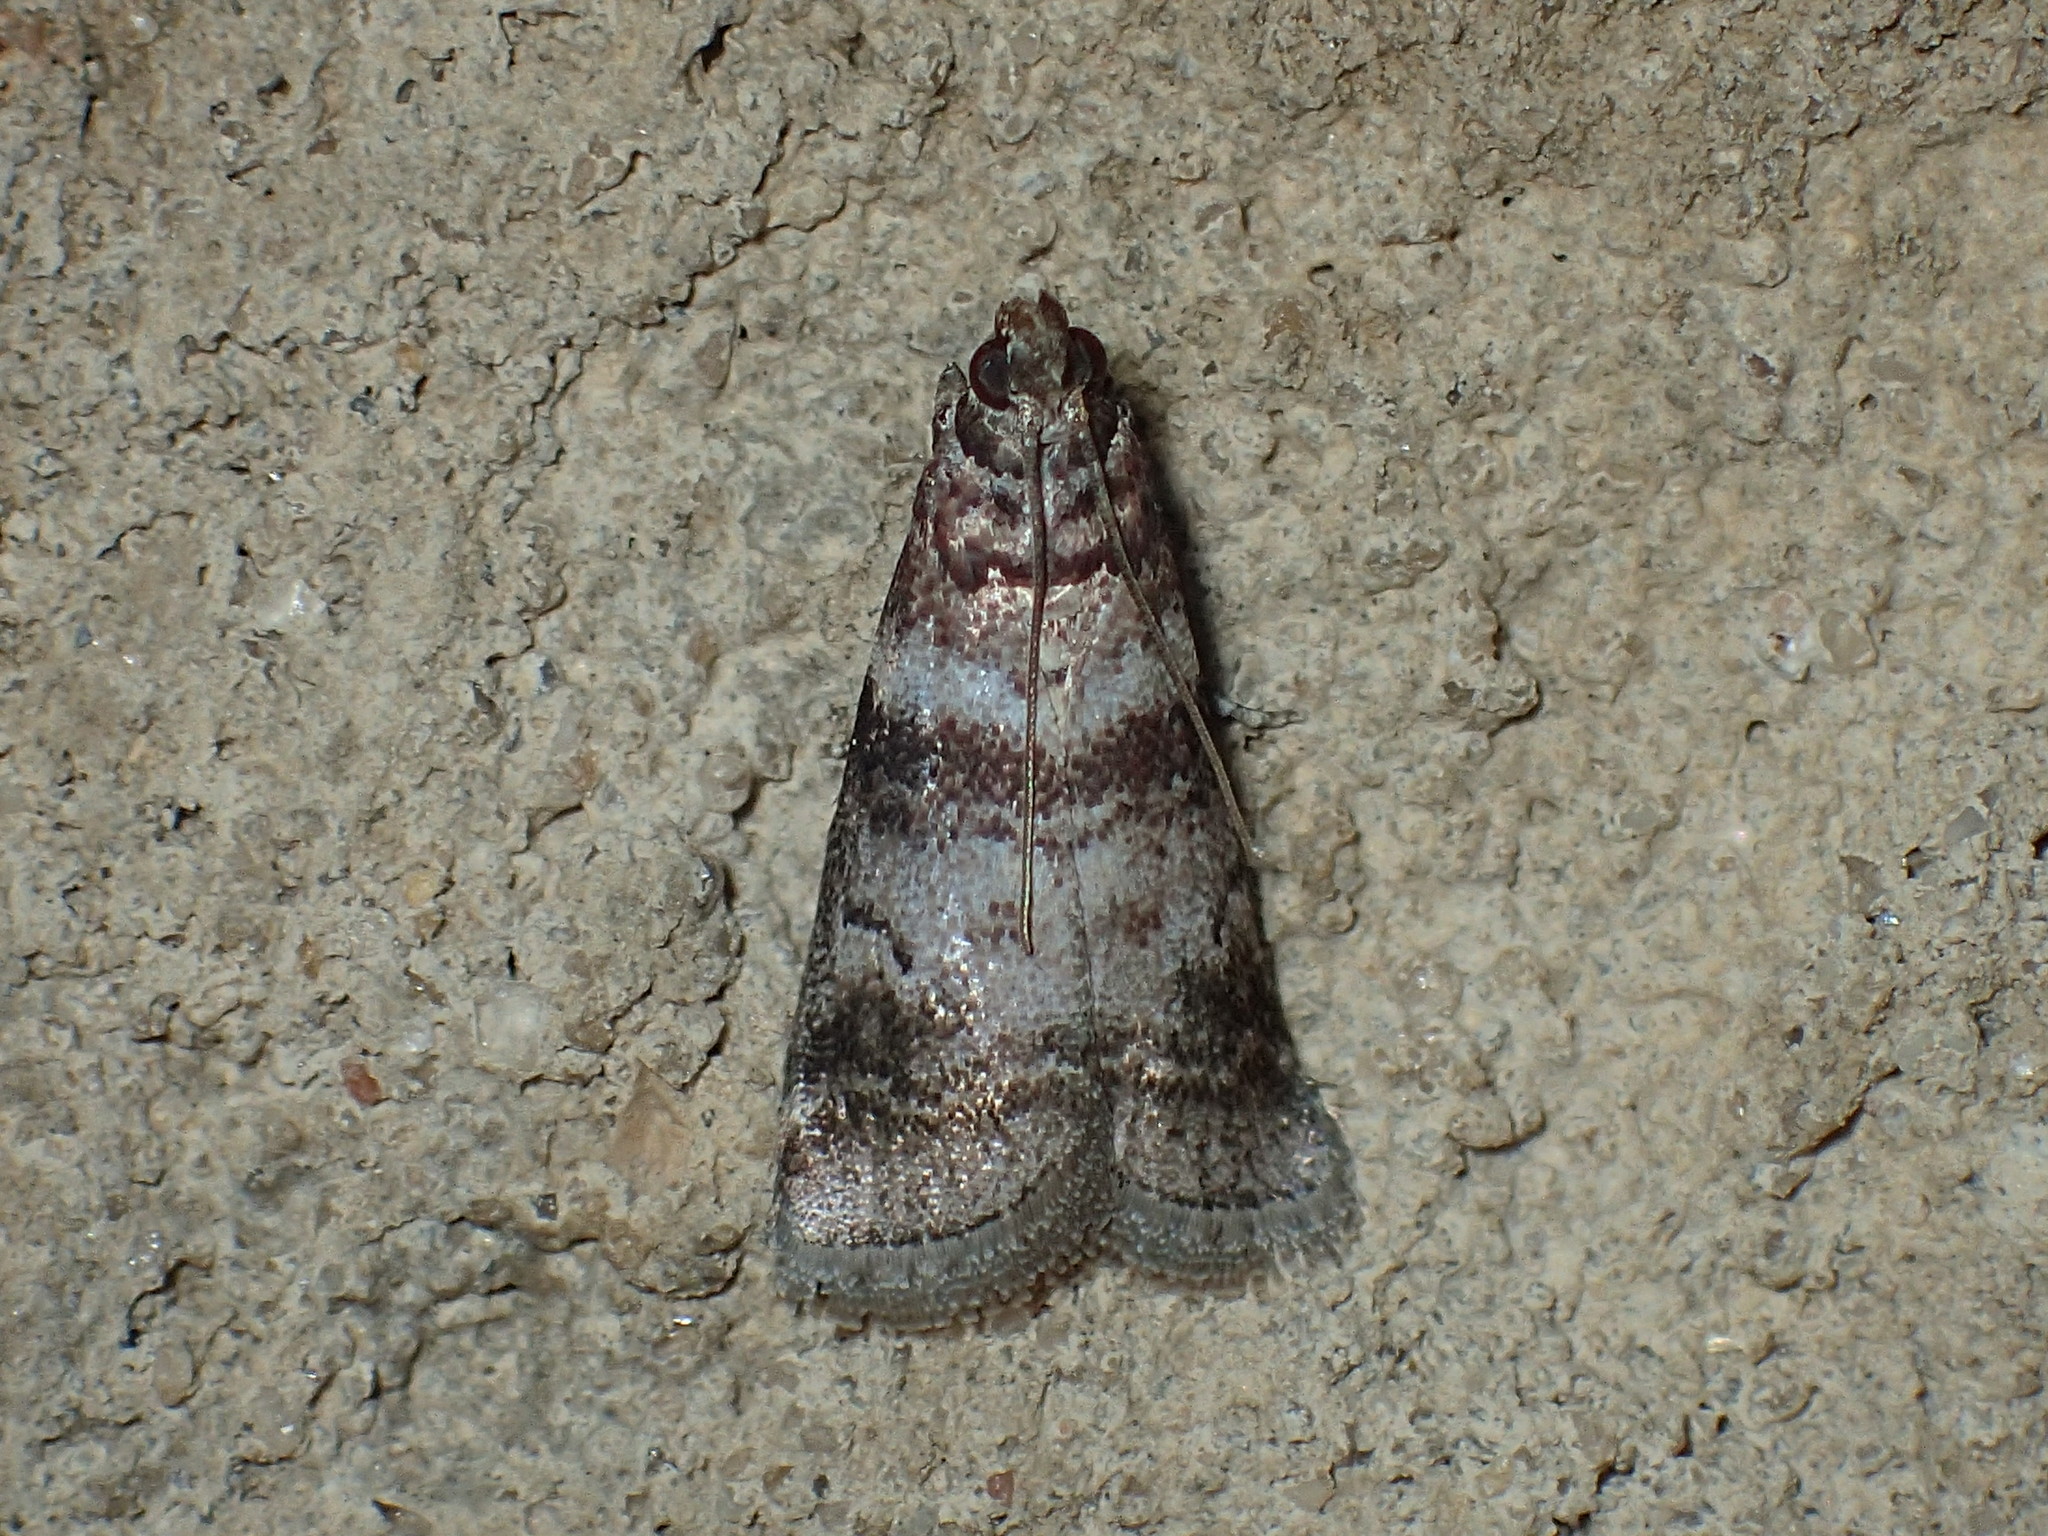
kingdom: Animalia
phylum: Arthropoda
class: Insecta
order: Lepidoptera
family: Pyralidae
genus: Sciota
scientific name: Sciota uvinella
